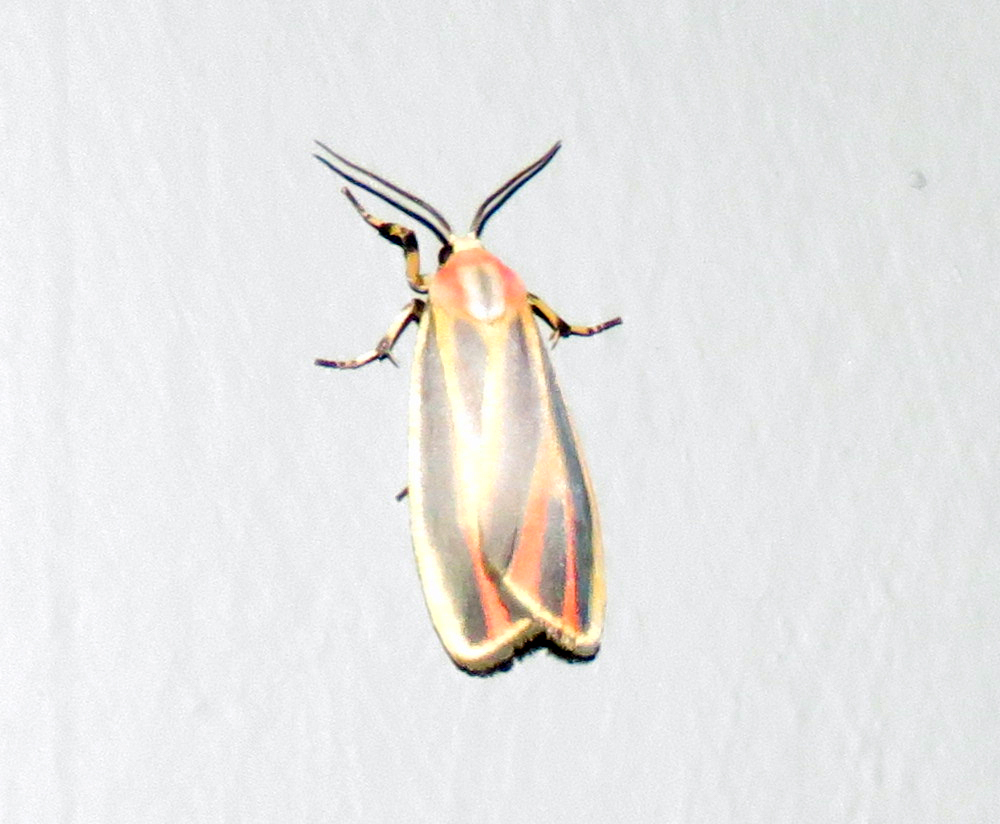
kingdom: Animalia
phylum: Arthropoda
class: Insecta
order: Lepidoptera
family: Erebidae
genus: Hypoprepia
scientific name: Hypoprepia fucosa
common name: Painted lichen moth
